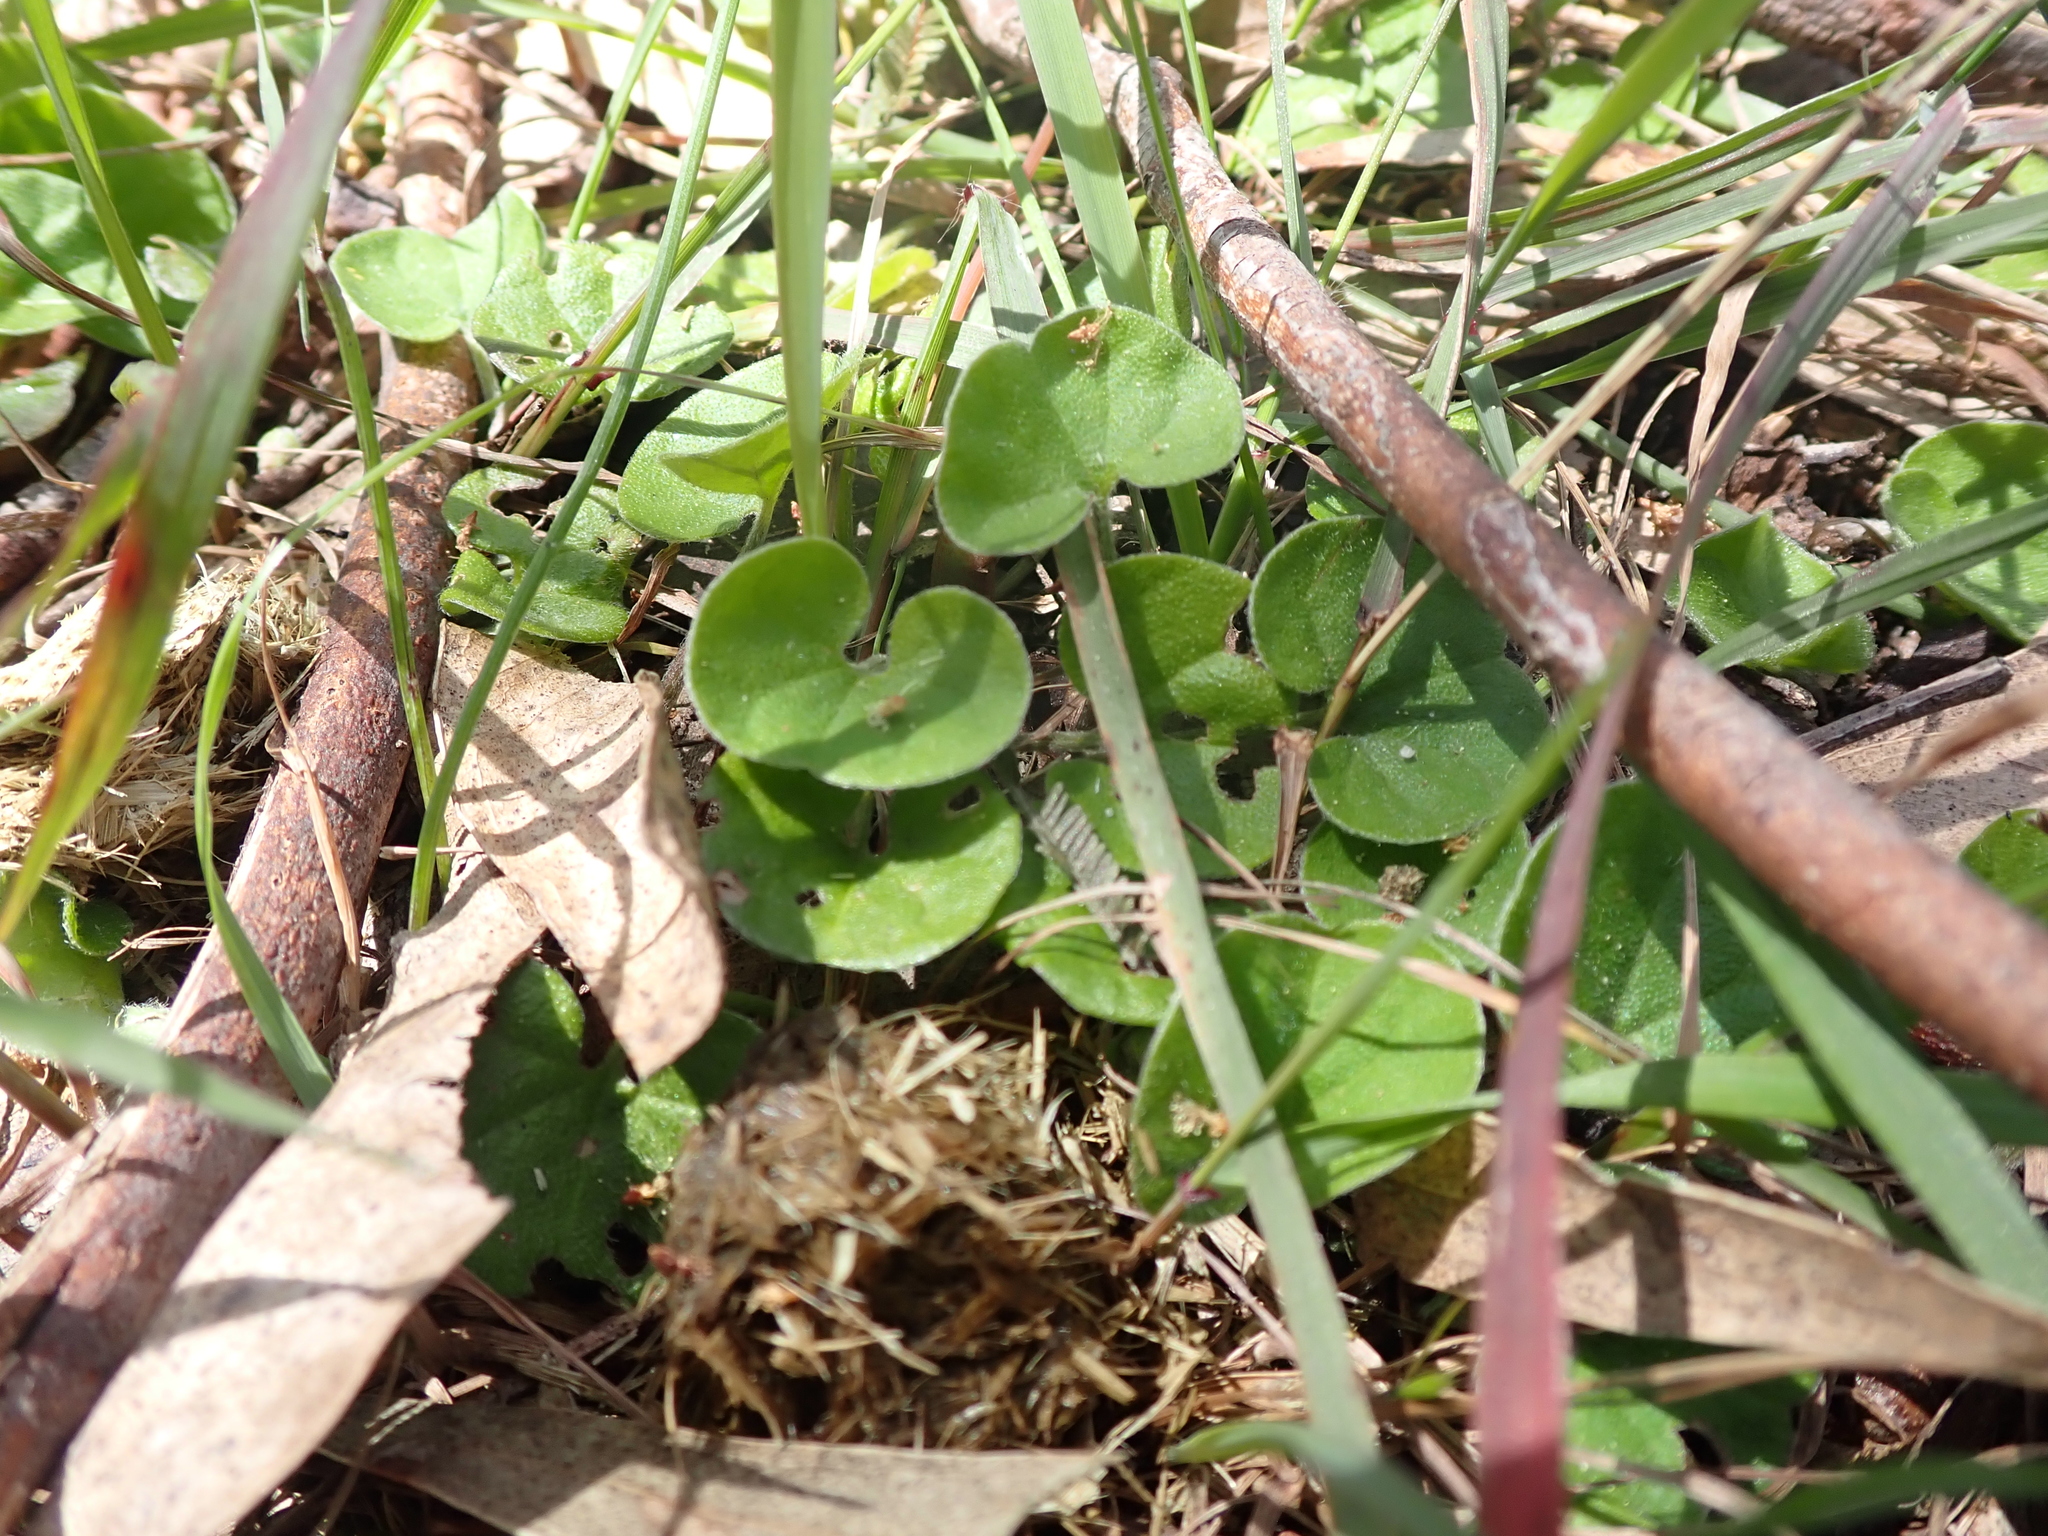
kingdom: Plantae
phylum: Tracheophyta
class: Magnoliopsida
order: Solanales
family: Convolvulaceae
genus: Dichondra
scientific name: Dichondra repens
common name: Kidneyweed
